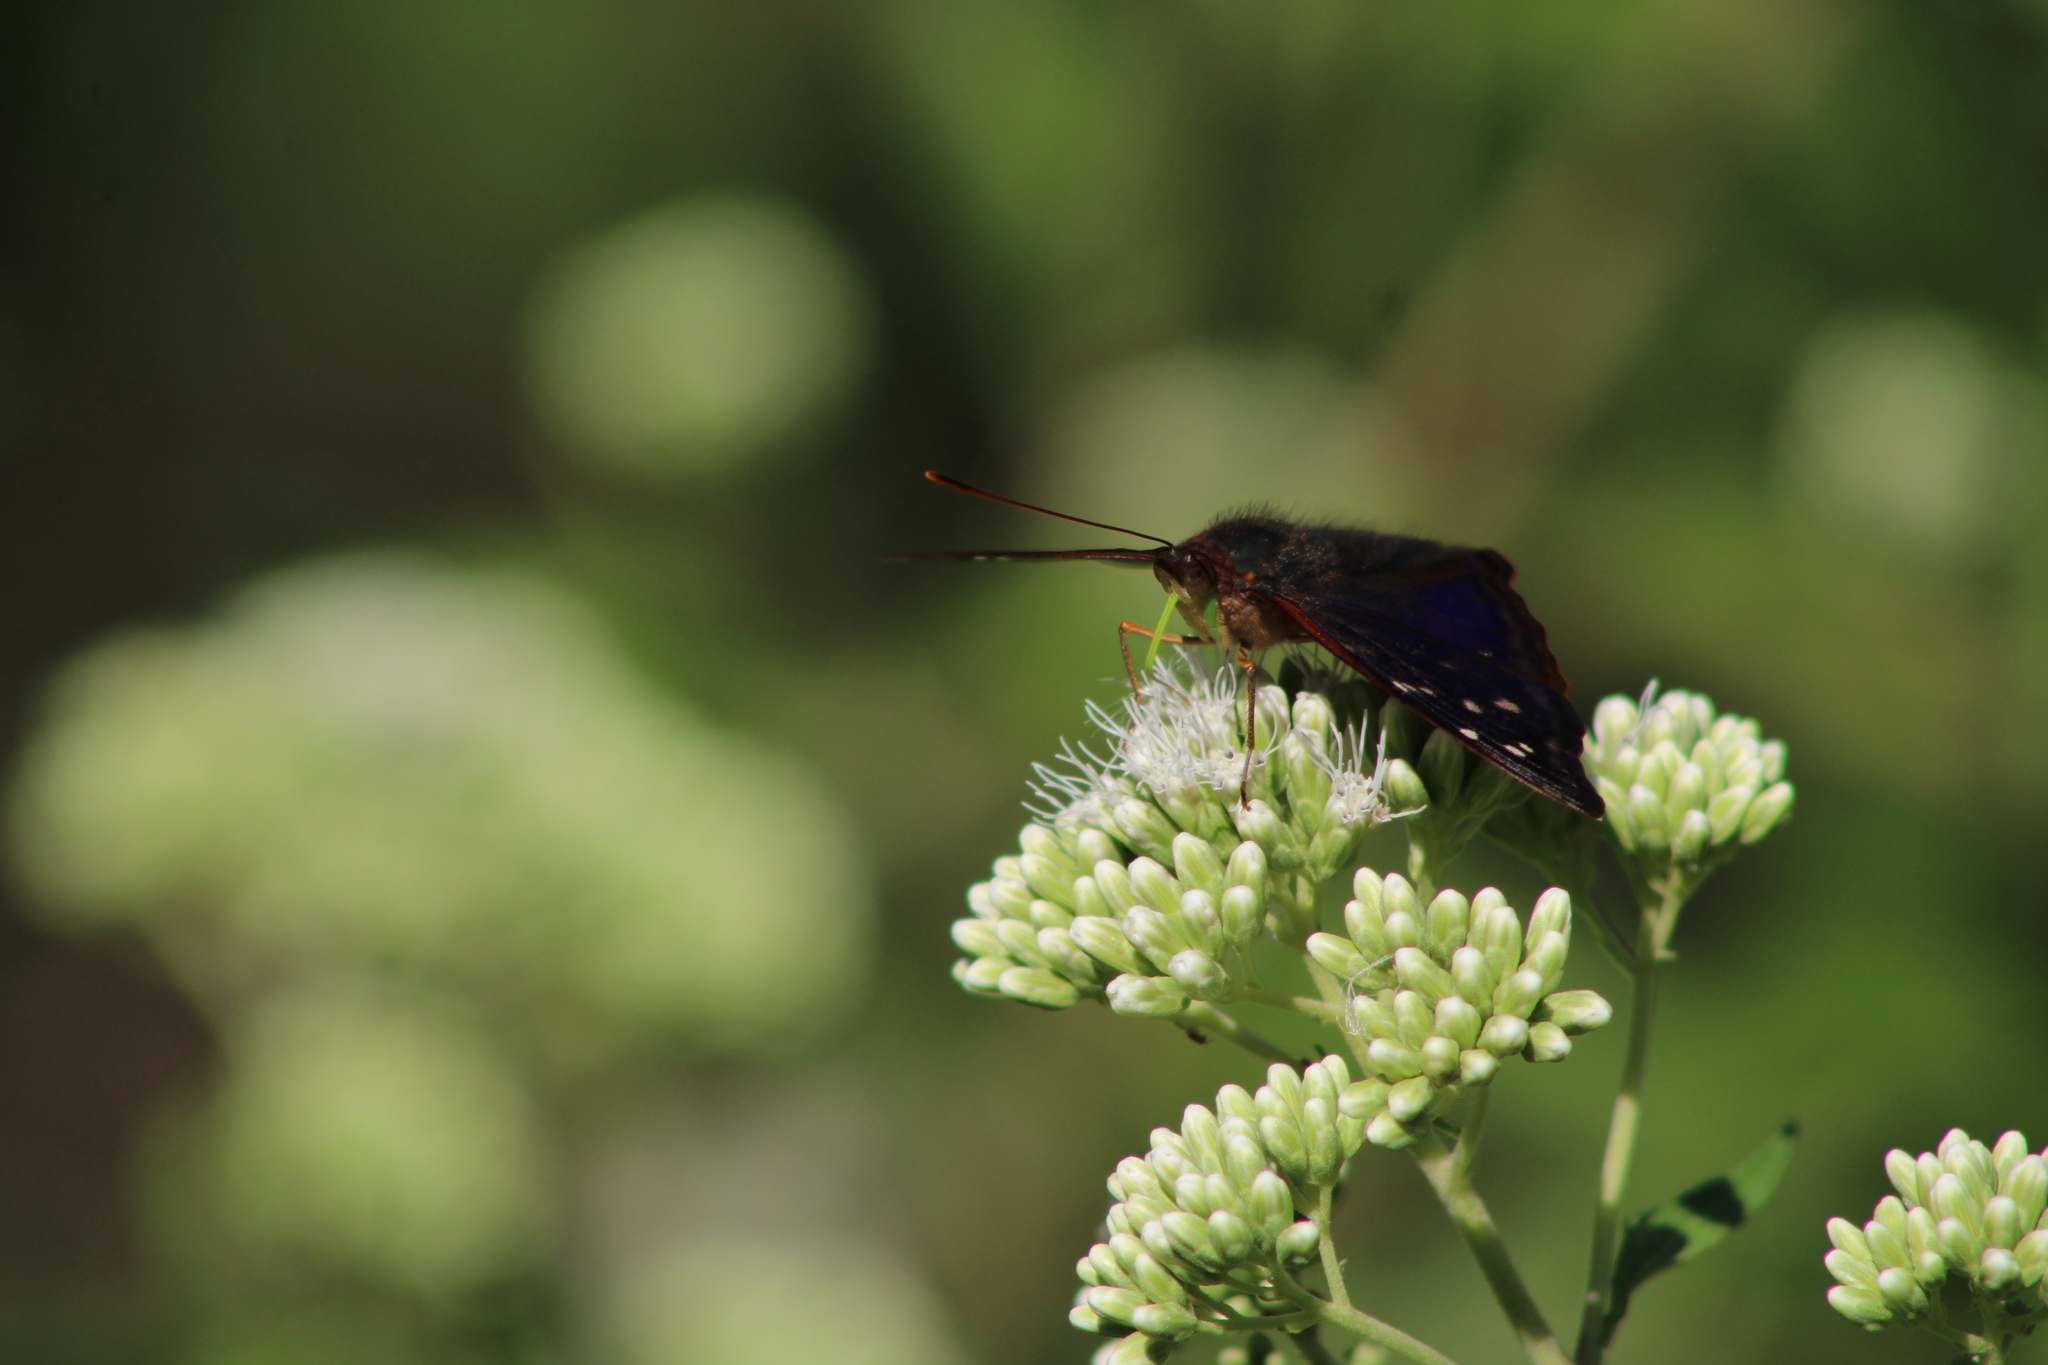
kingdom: Animalia
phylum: Arthropoda
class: Insecta
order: Lepidoptera
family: Nymphalidae
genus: Doxocopa
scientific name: Doxocopa kallina
